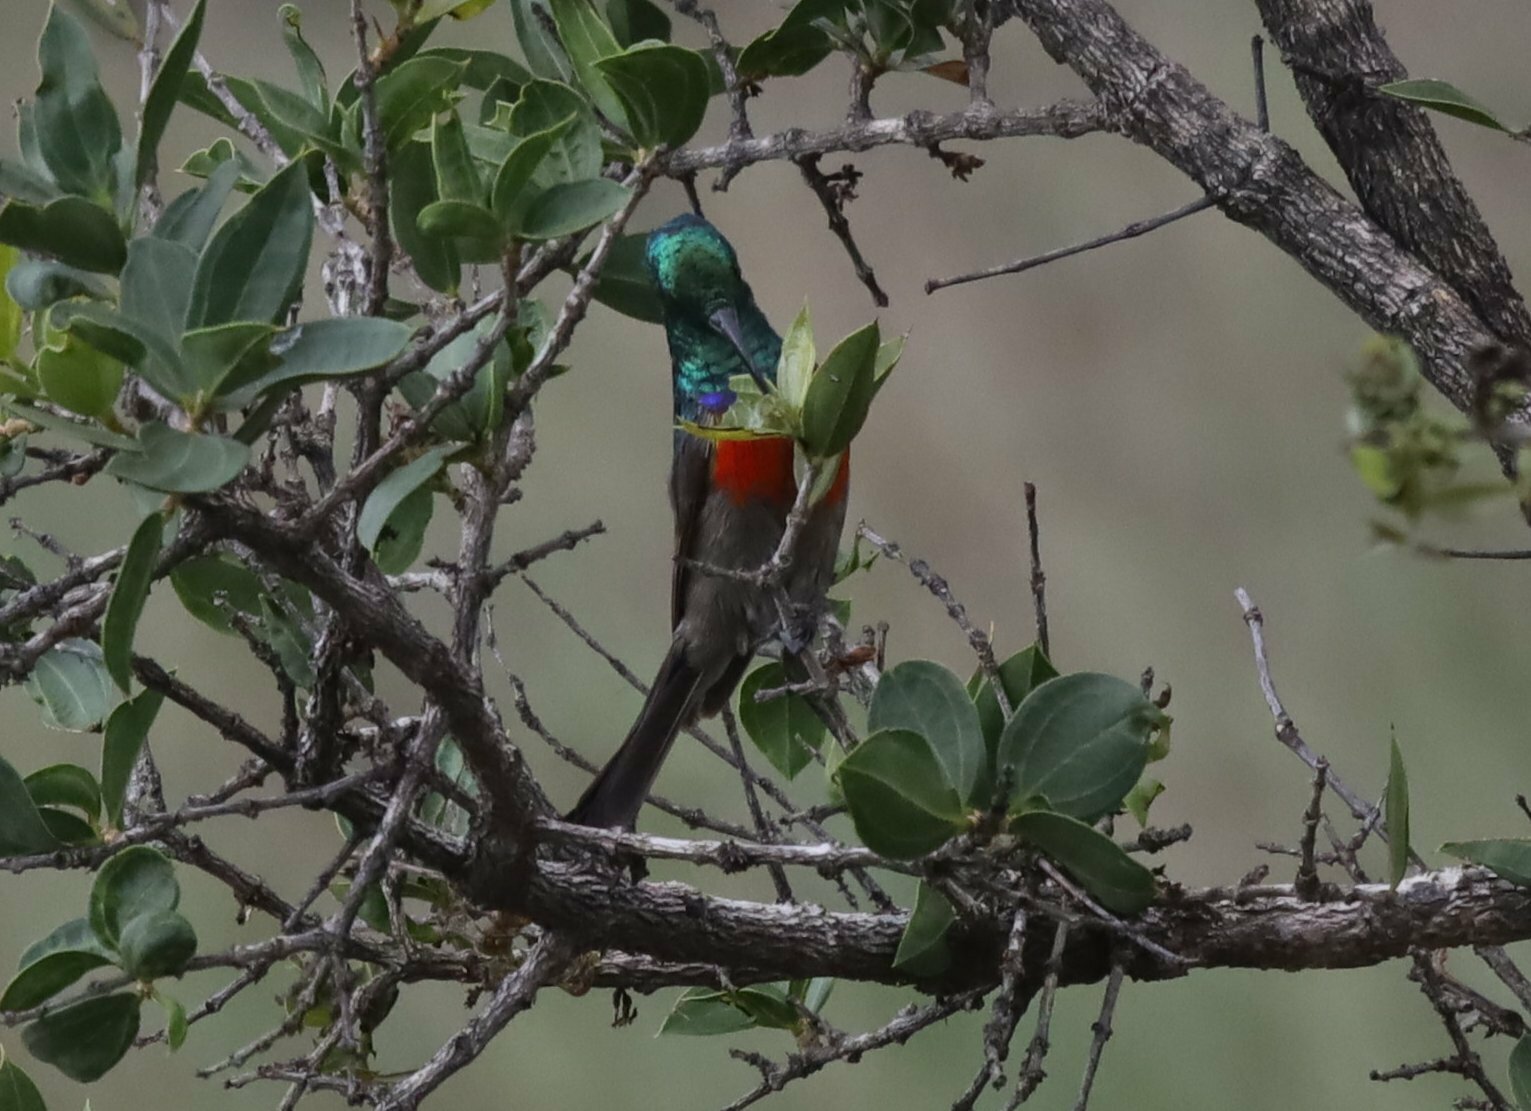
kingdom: Animalia
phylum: Chordata
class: Aves
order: Passeriformes
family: Nectariniidae
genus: Cinnyris
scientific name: Cinnyris afer
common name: Greater double-collared sunbird
